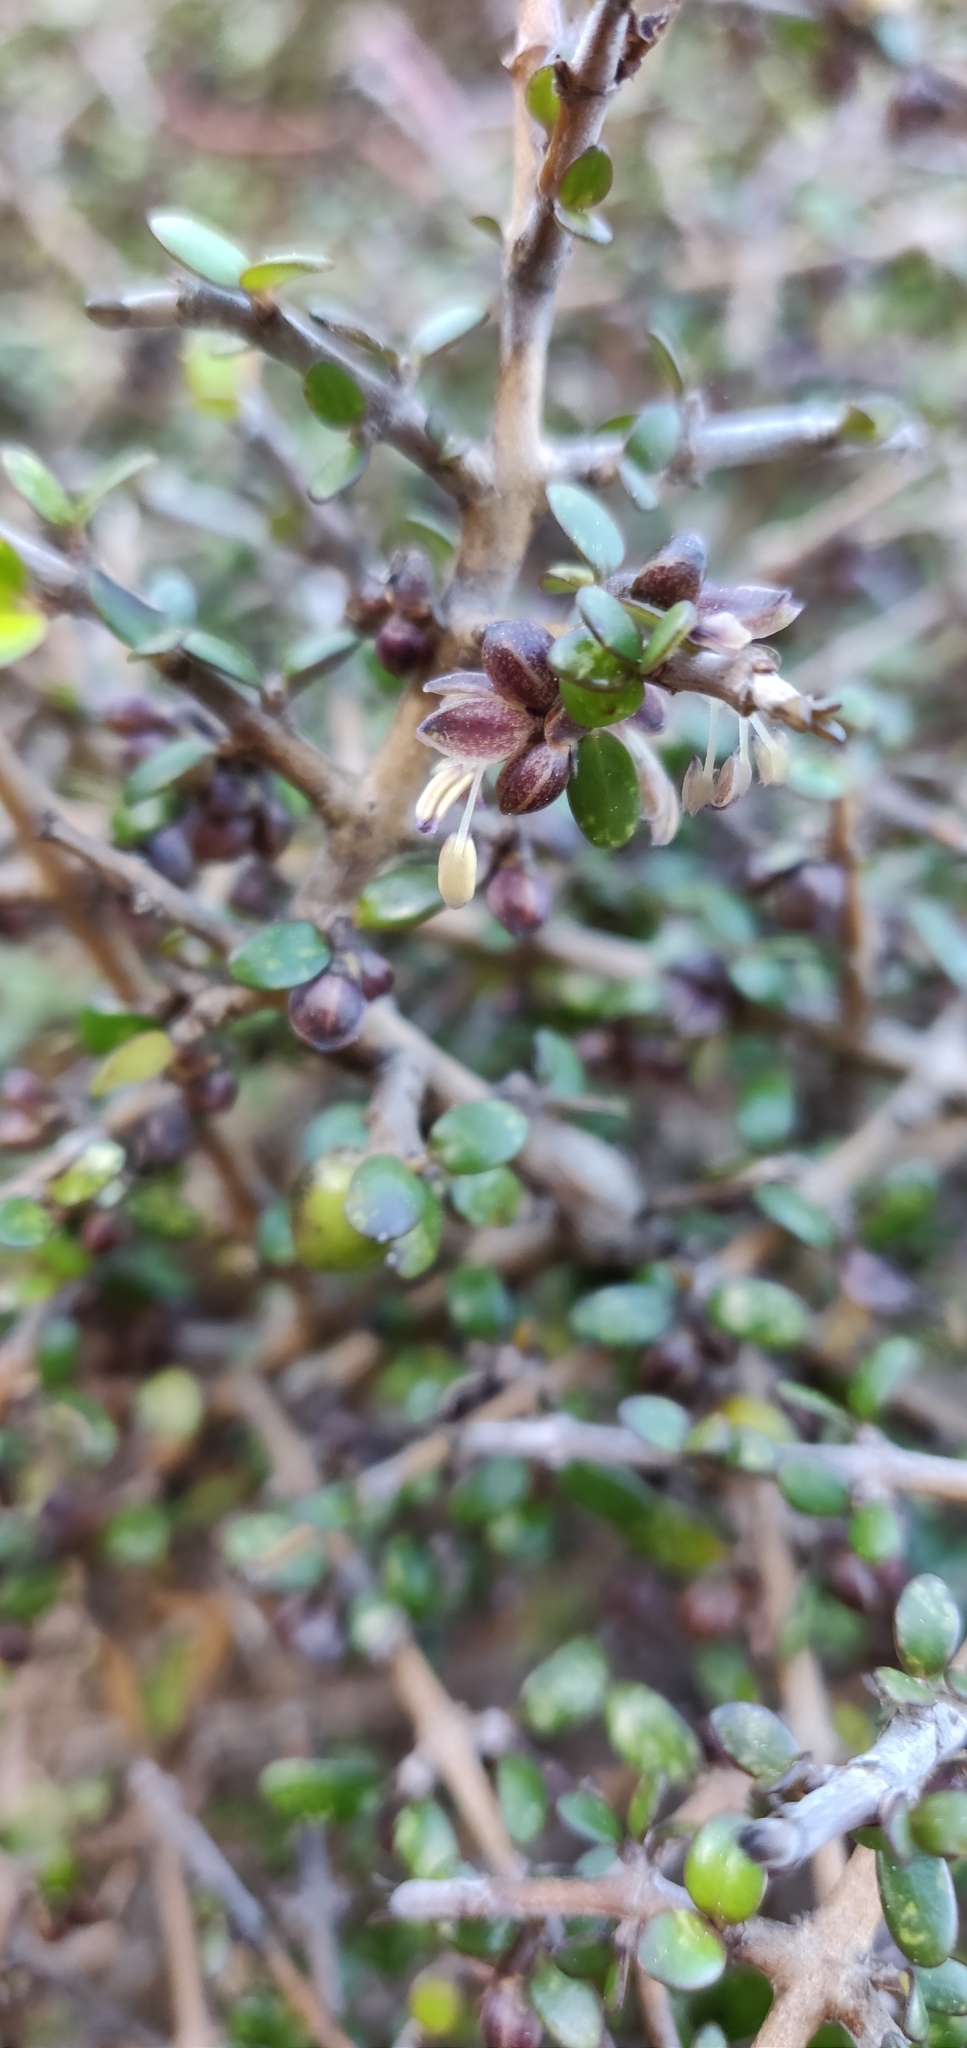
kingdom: Plantae
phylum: Tracheophyta
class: Magnoliopsida
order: Gentianales
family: Rubiaceae
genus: Coprosma
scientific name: Coprosma propinqua
